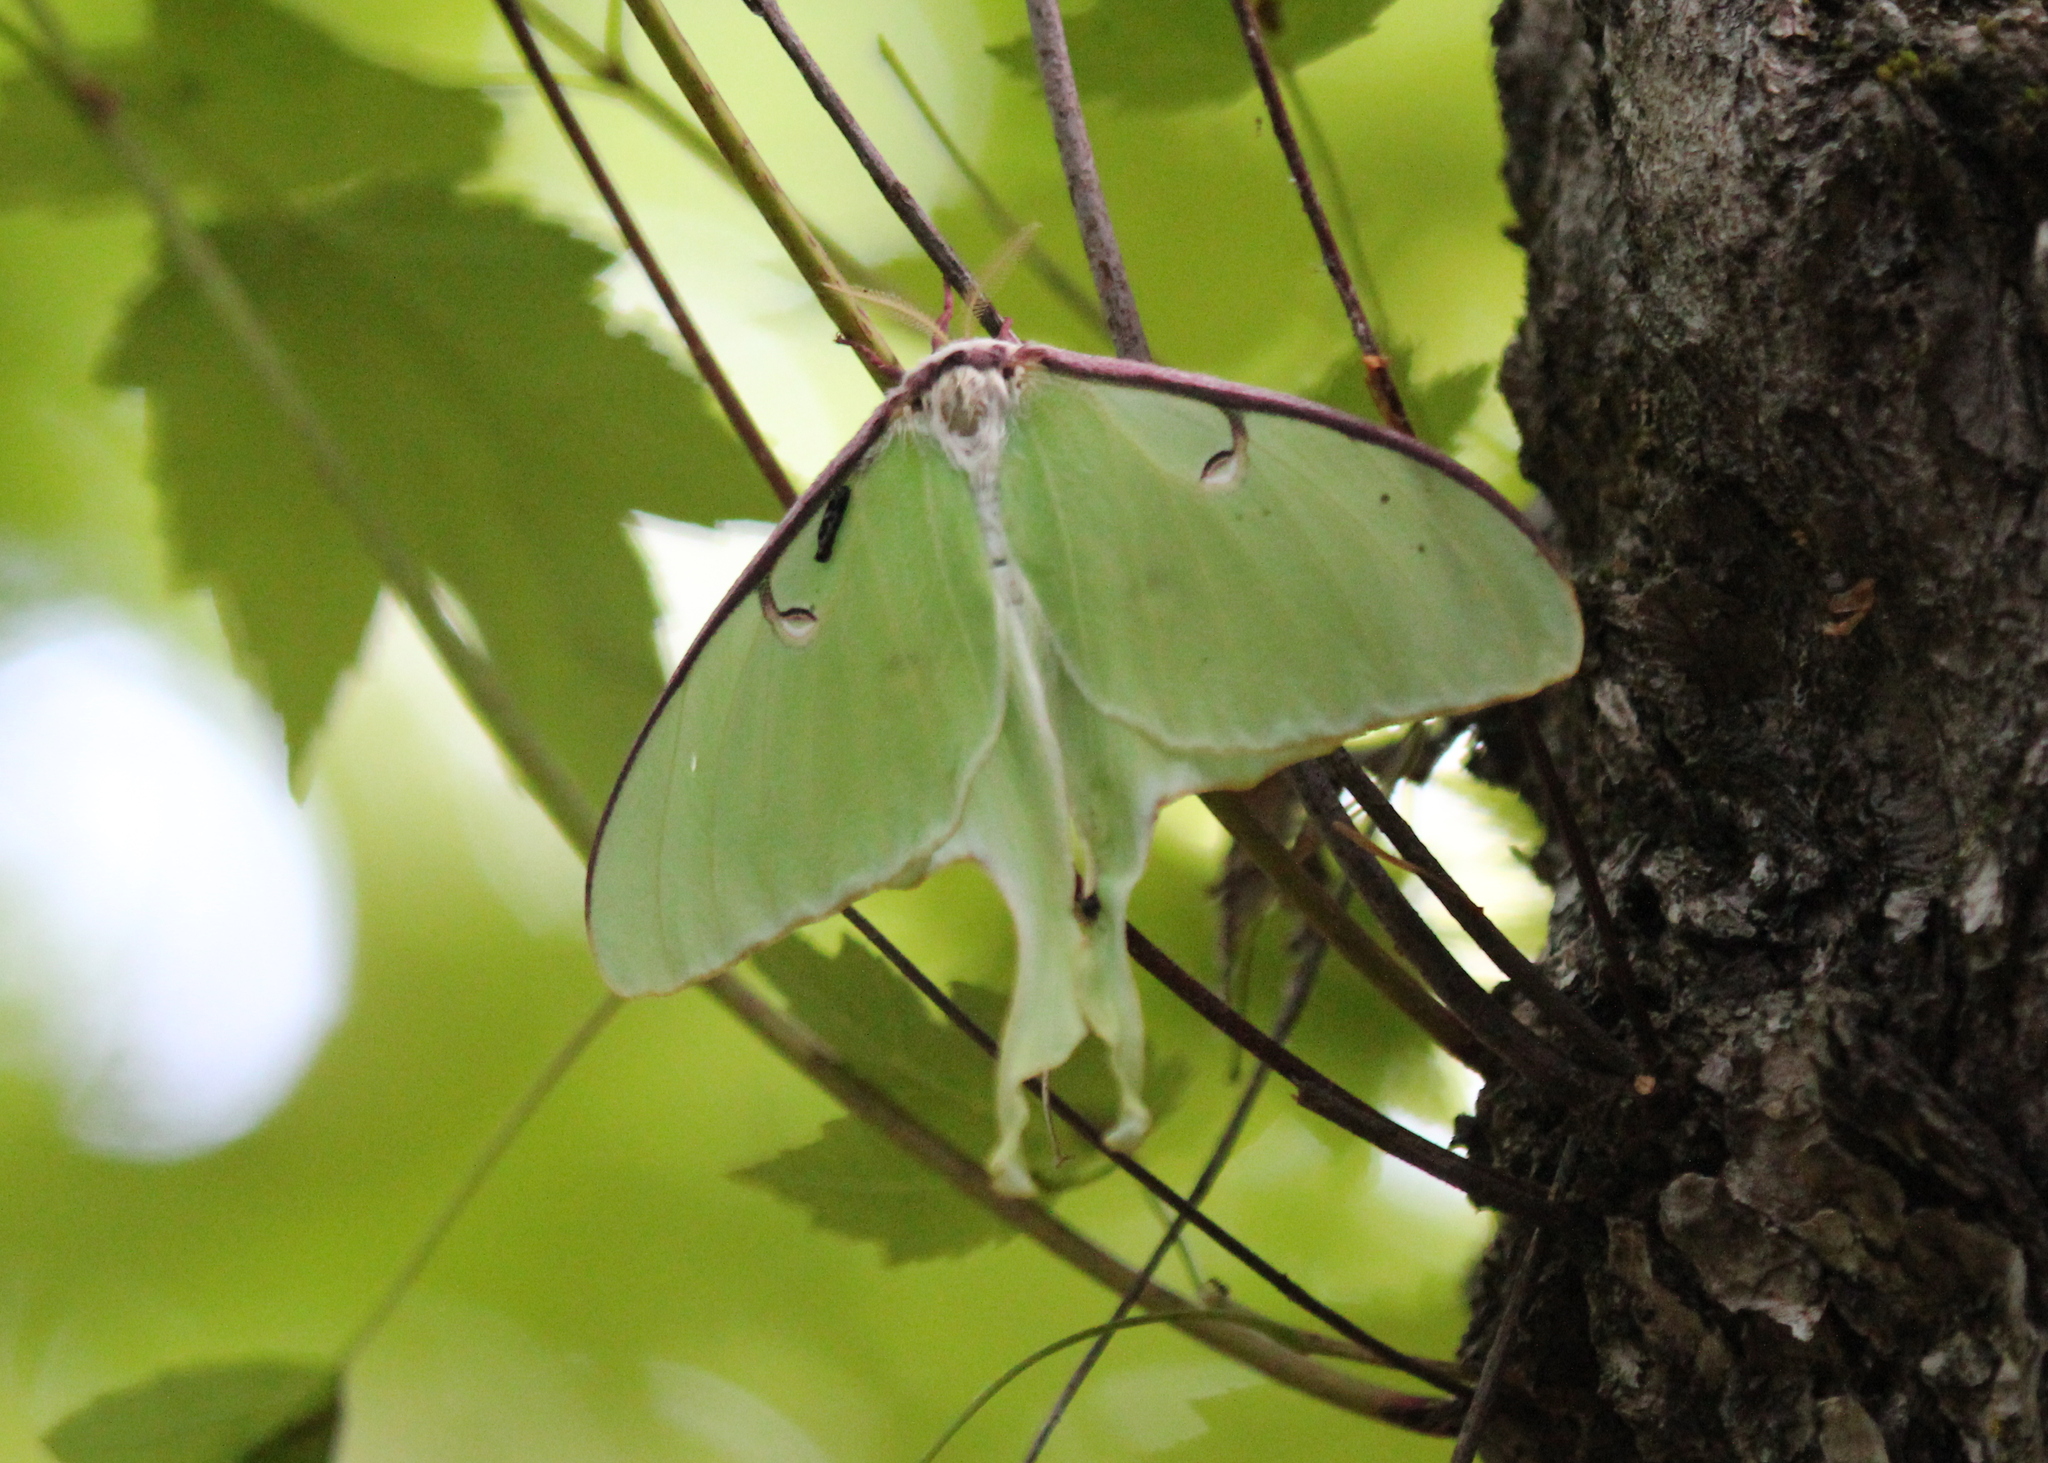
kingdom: Animalia
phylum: Arthropoda
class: Insecta
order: Lepidoptera
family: Saturniidae
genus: Actias
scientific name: Actias luna
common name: Luna moth
